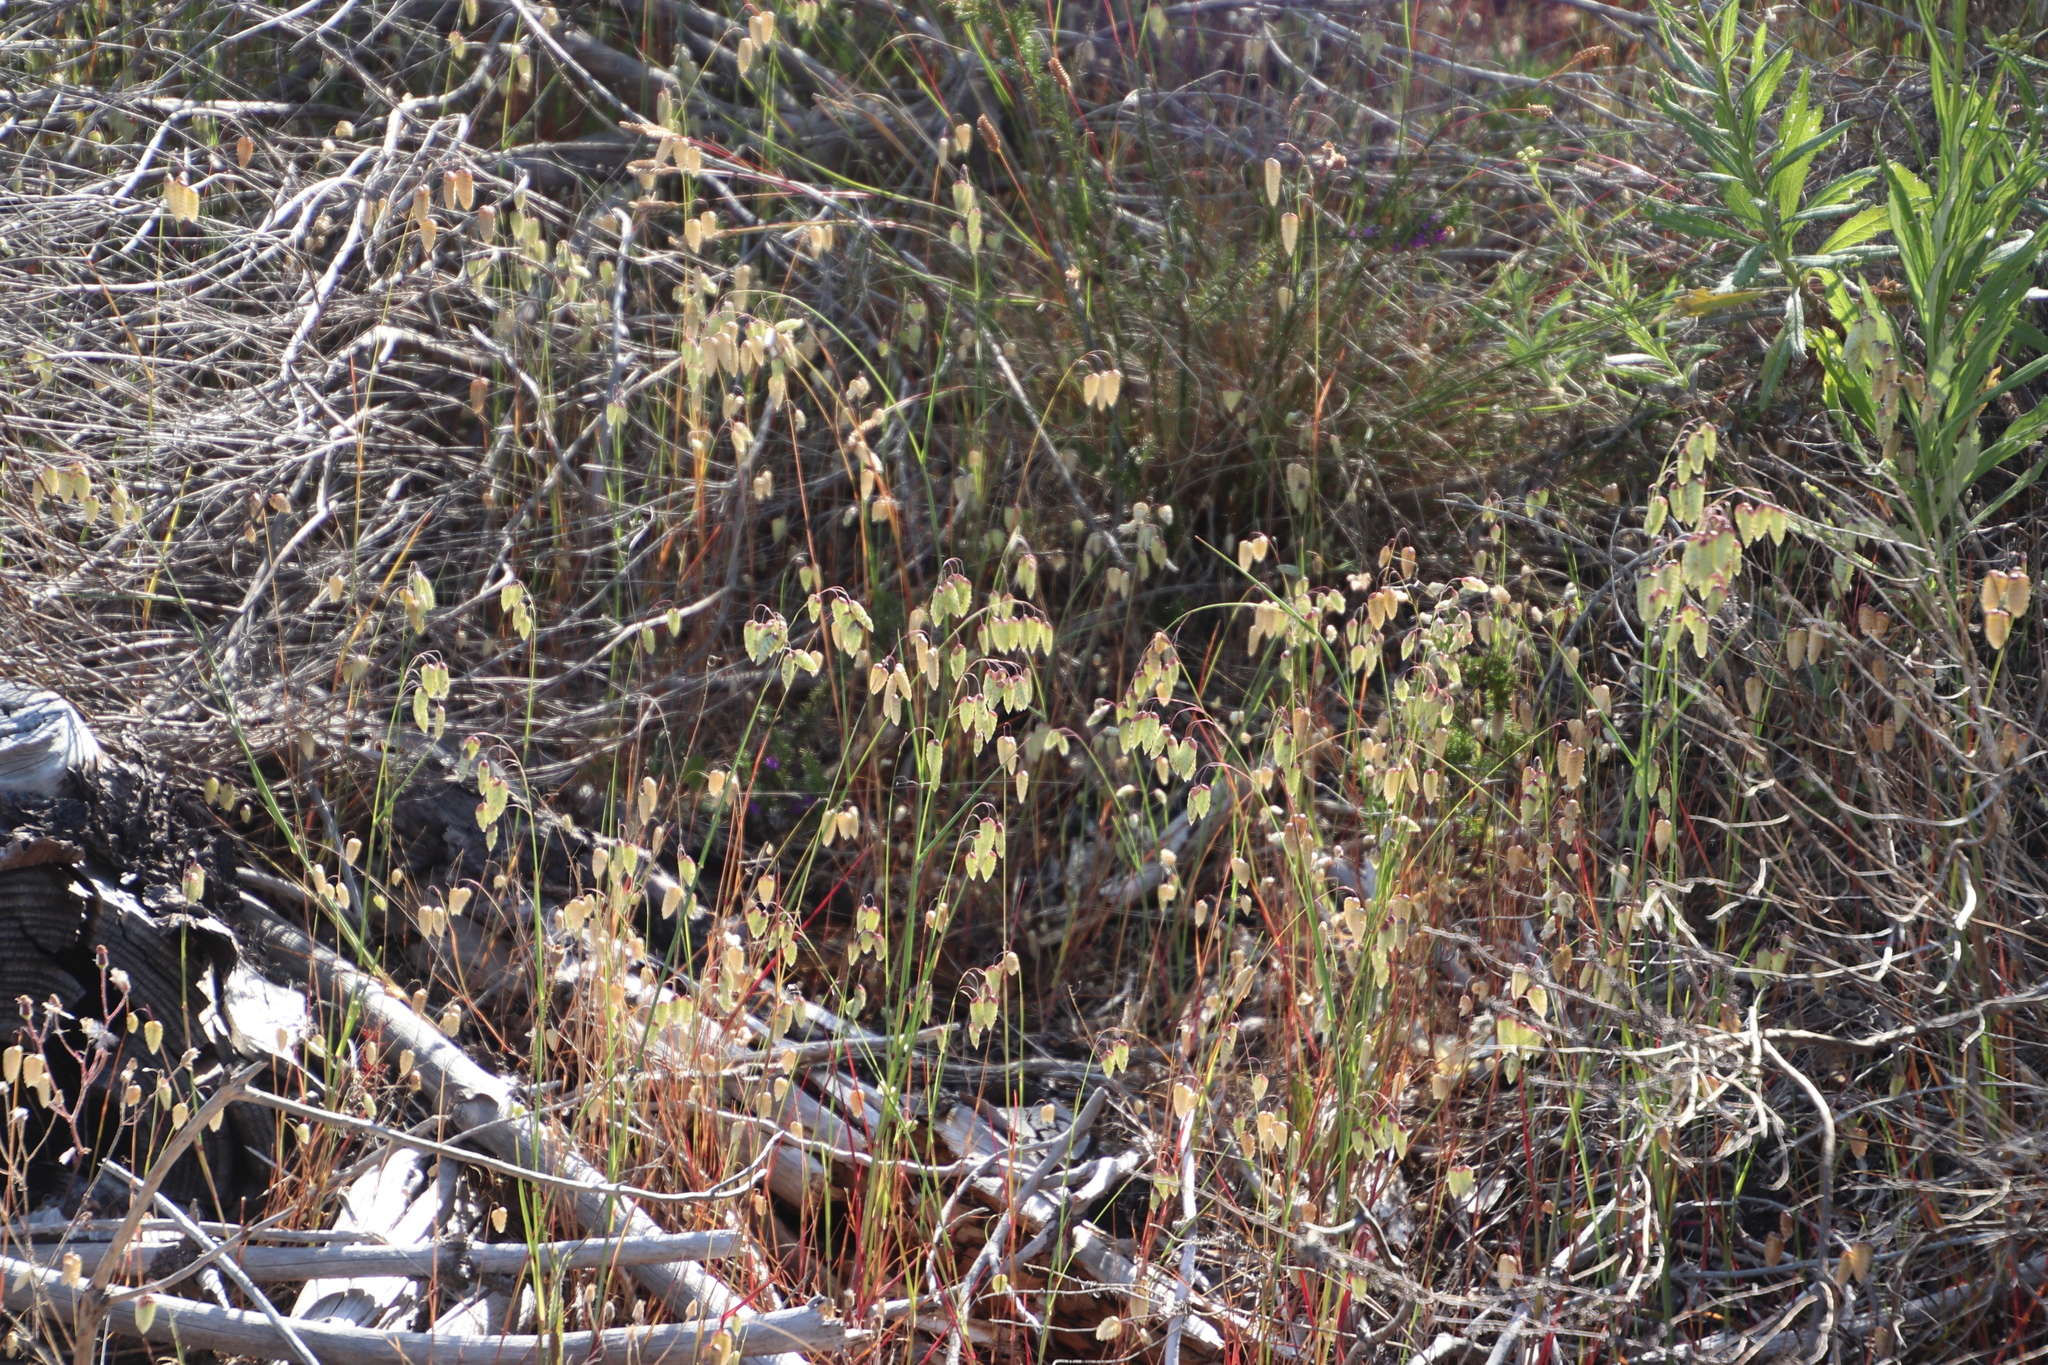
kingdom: Plantae
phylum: Tracheophyta
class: Liliopsida
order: Poales
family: Poaceae
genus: Briza
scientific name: Briza maxima
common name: Big quakinggrass
